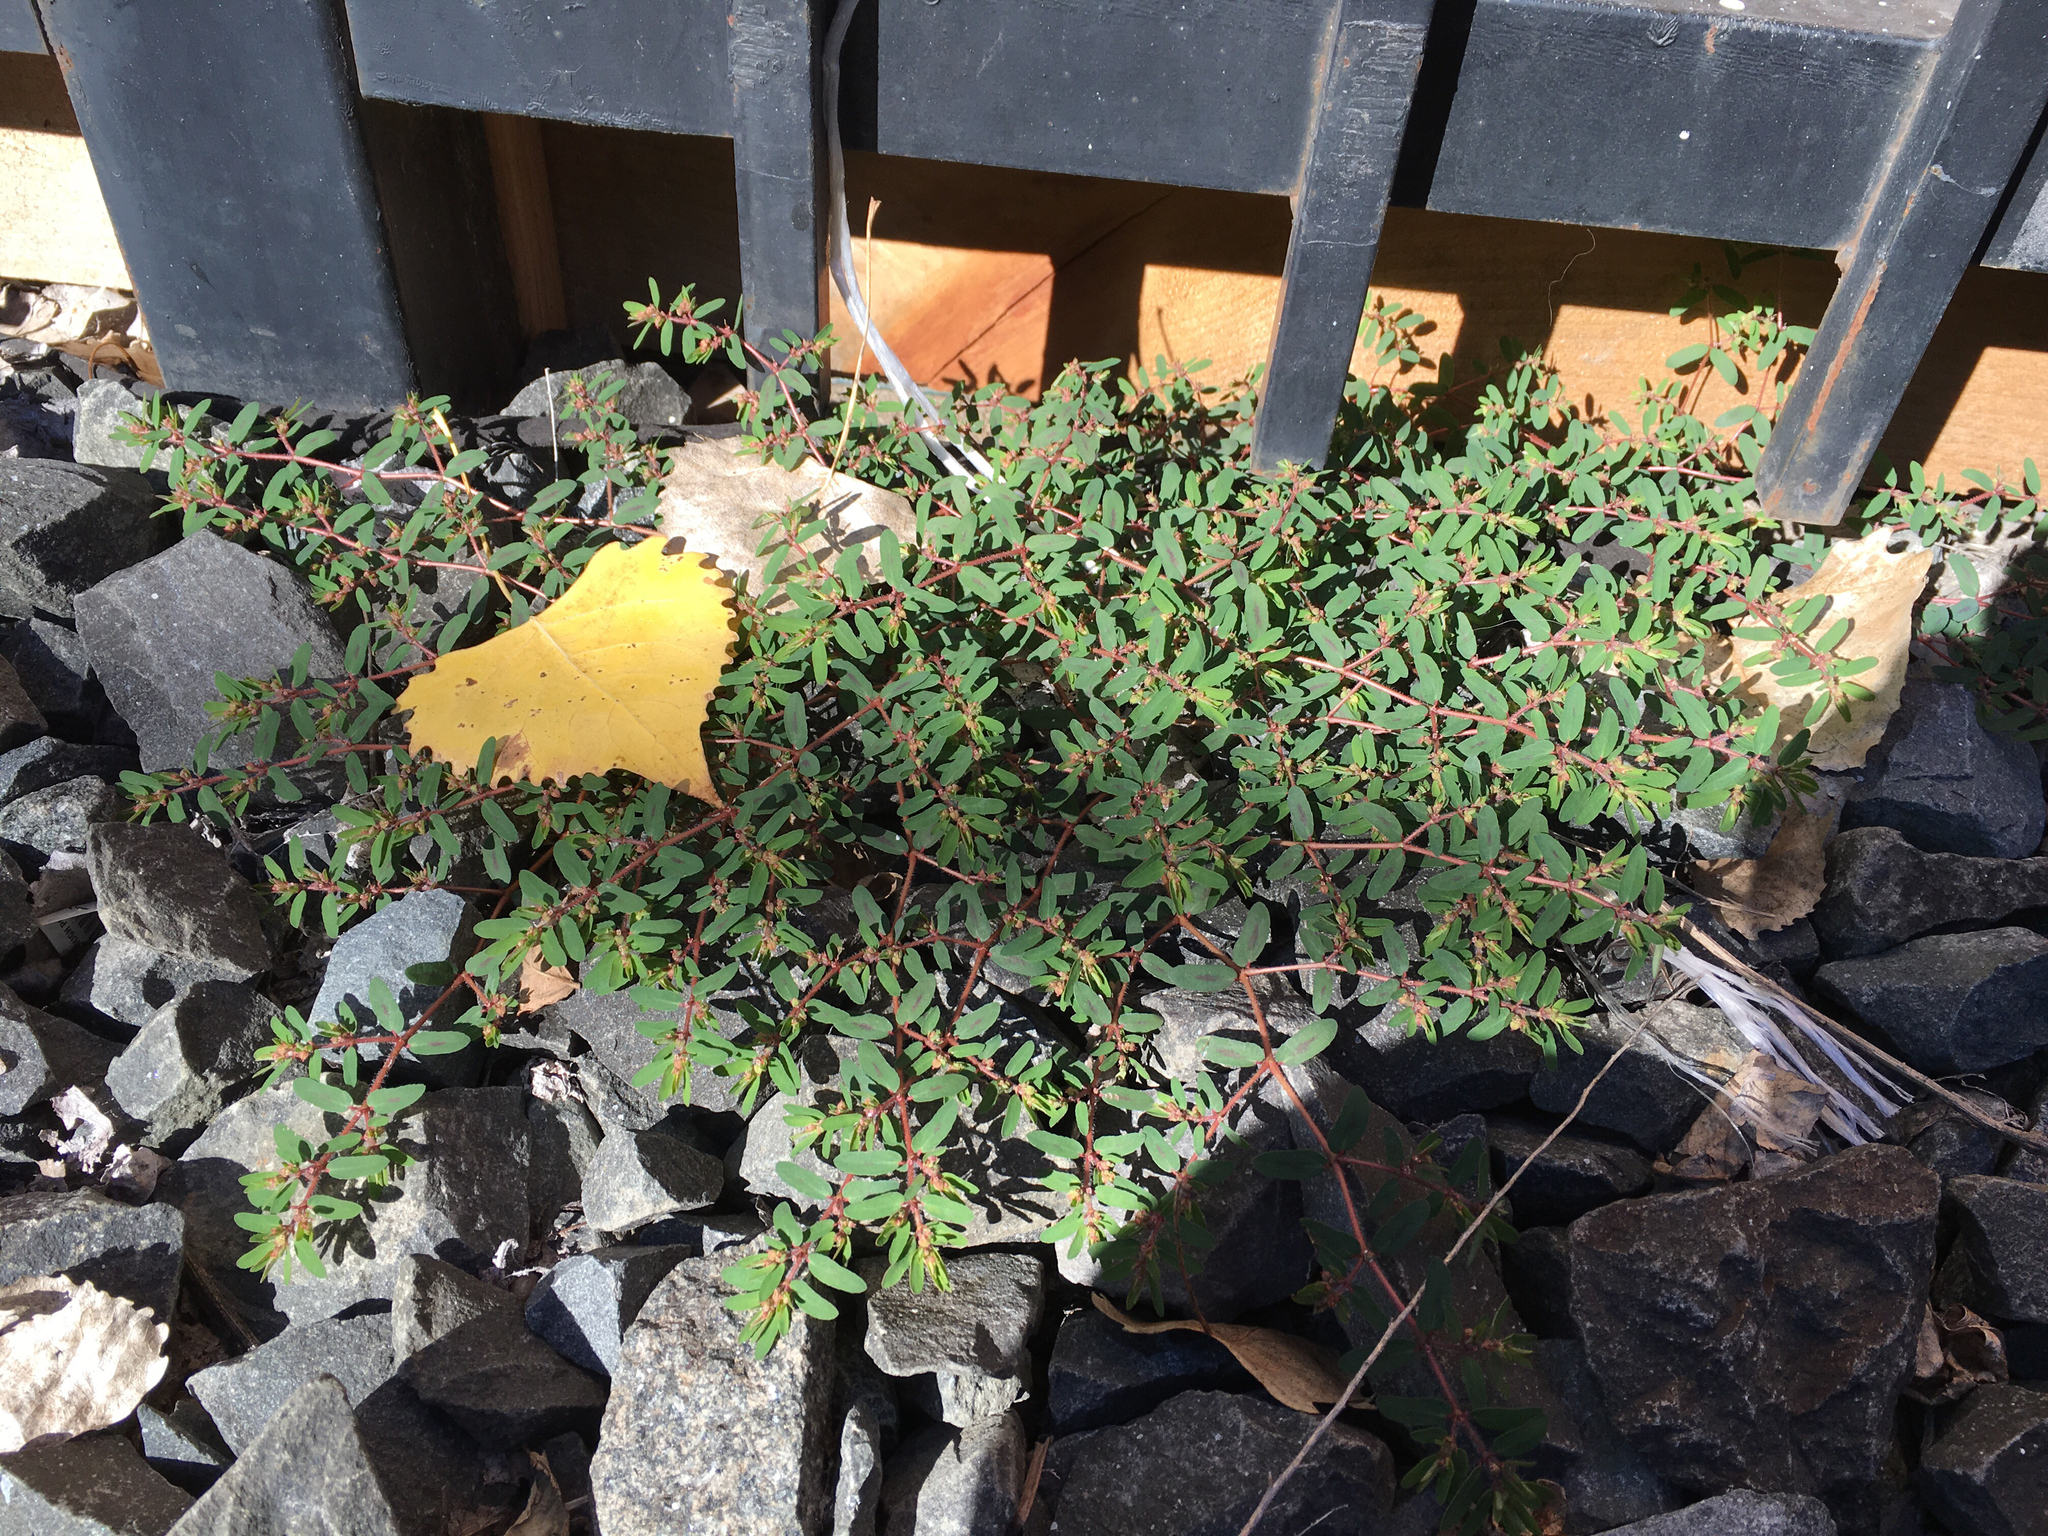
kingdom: Plantae
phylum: Tracheophyta
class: Magnoliopsida
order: Malpighiales
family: Euphorbiaceae
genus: Euphorbia
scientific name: Euphorbia maculata
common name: Spotted spurge
